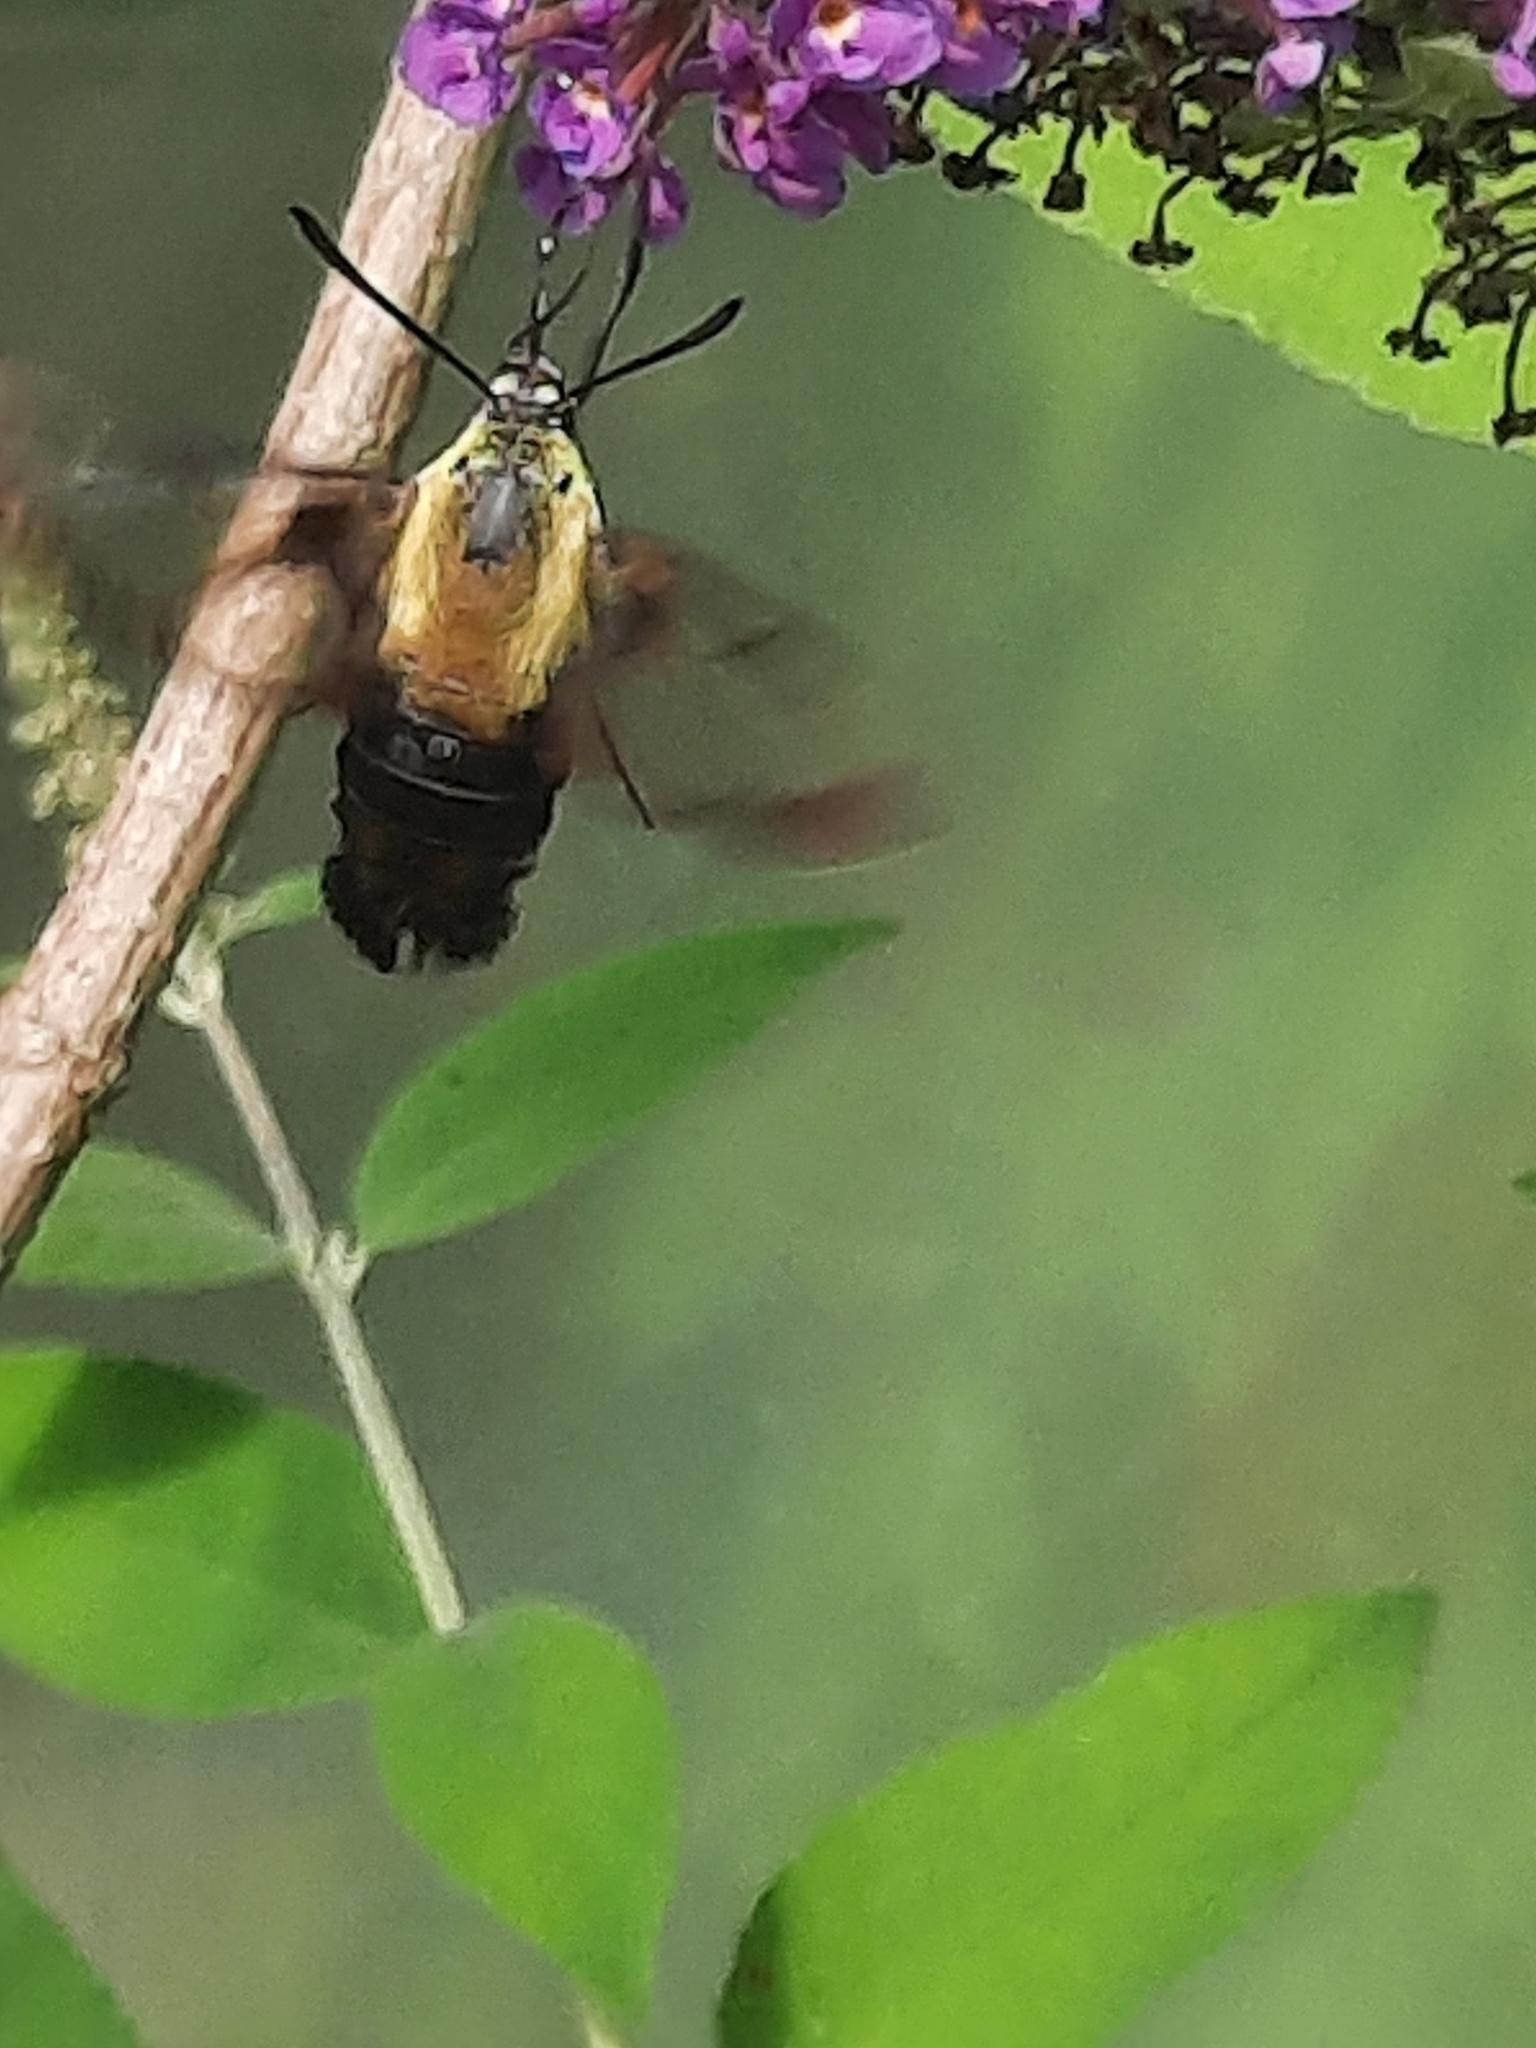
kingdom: Animalia
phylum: Arthropoda
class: Insecta
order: Lepidoptera
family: Sphingidae
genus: Hemaris
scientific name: Hemaris diffinis
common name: Bumblebee moth
